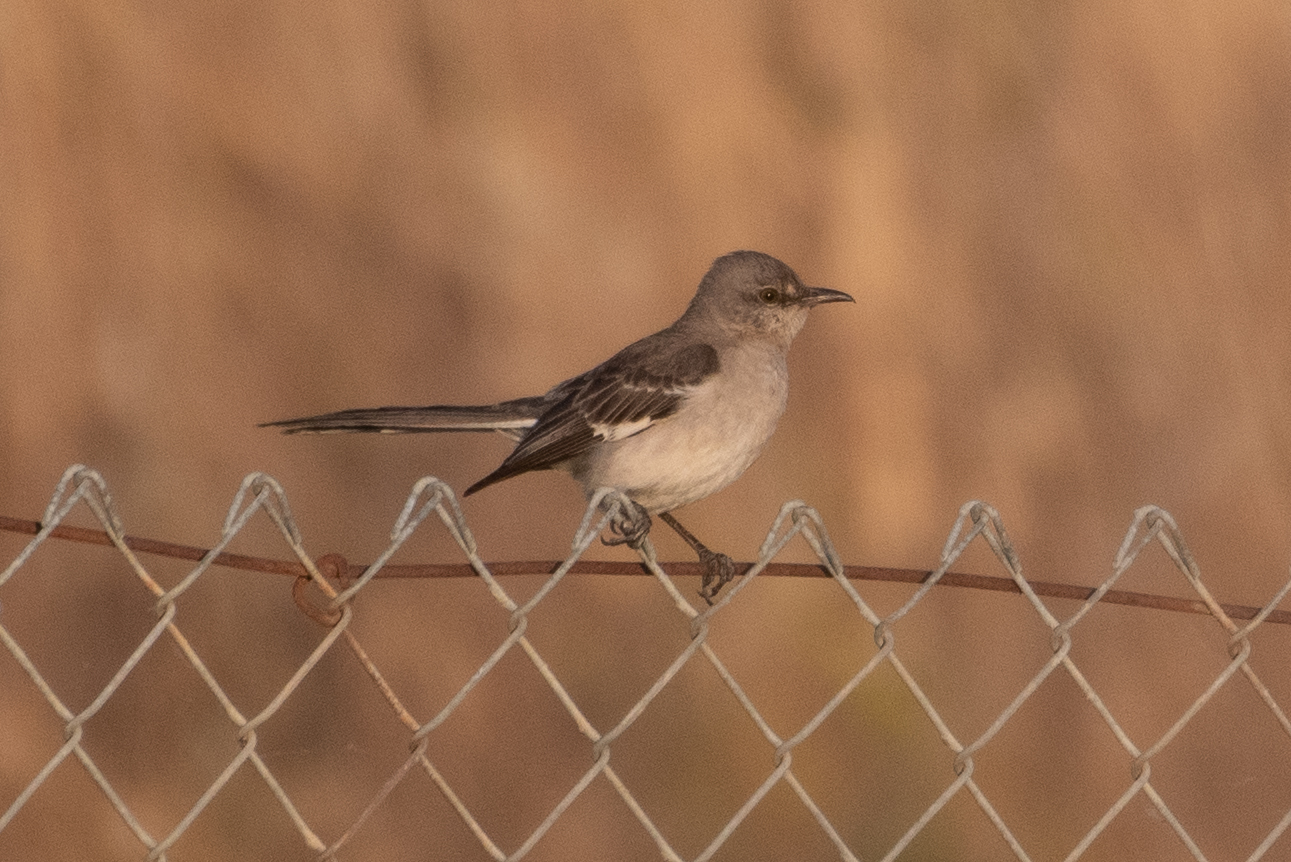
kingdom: Animalia
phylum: Chordata
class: Aves
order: Passeriformes
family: Mimidae
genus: Mimus
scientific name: Mimus polyglottos
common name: Northern mockingbird
